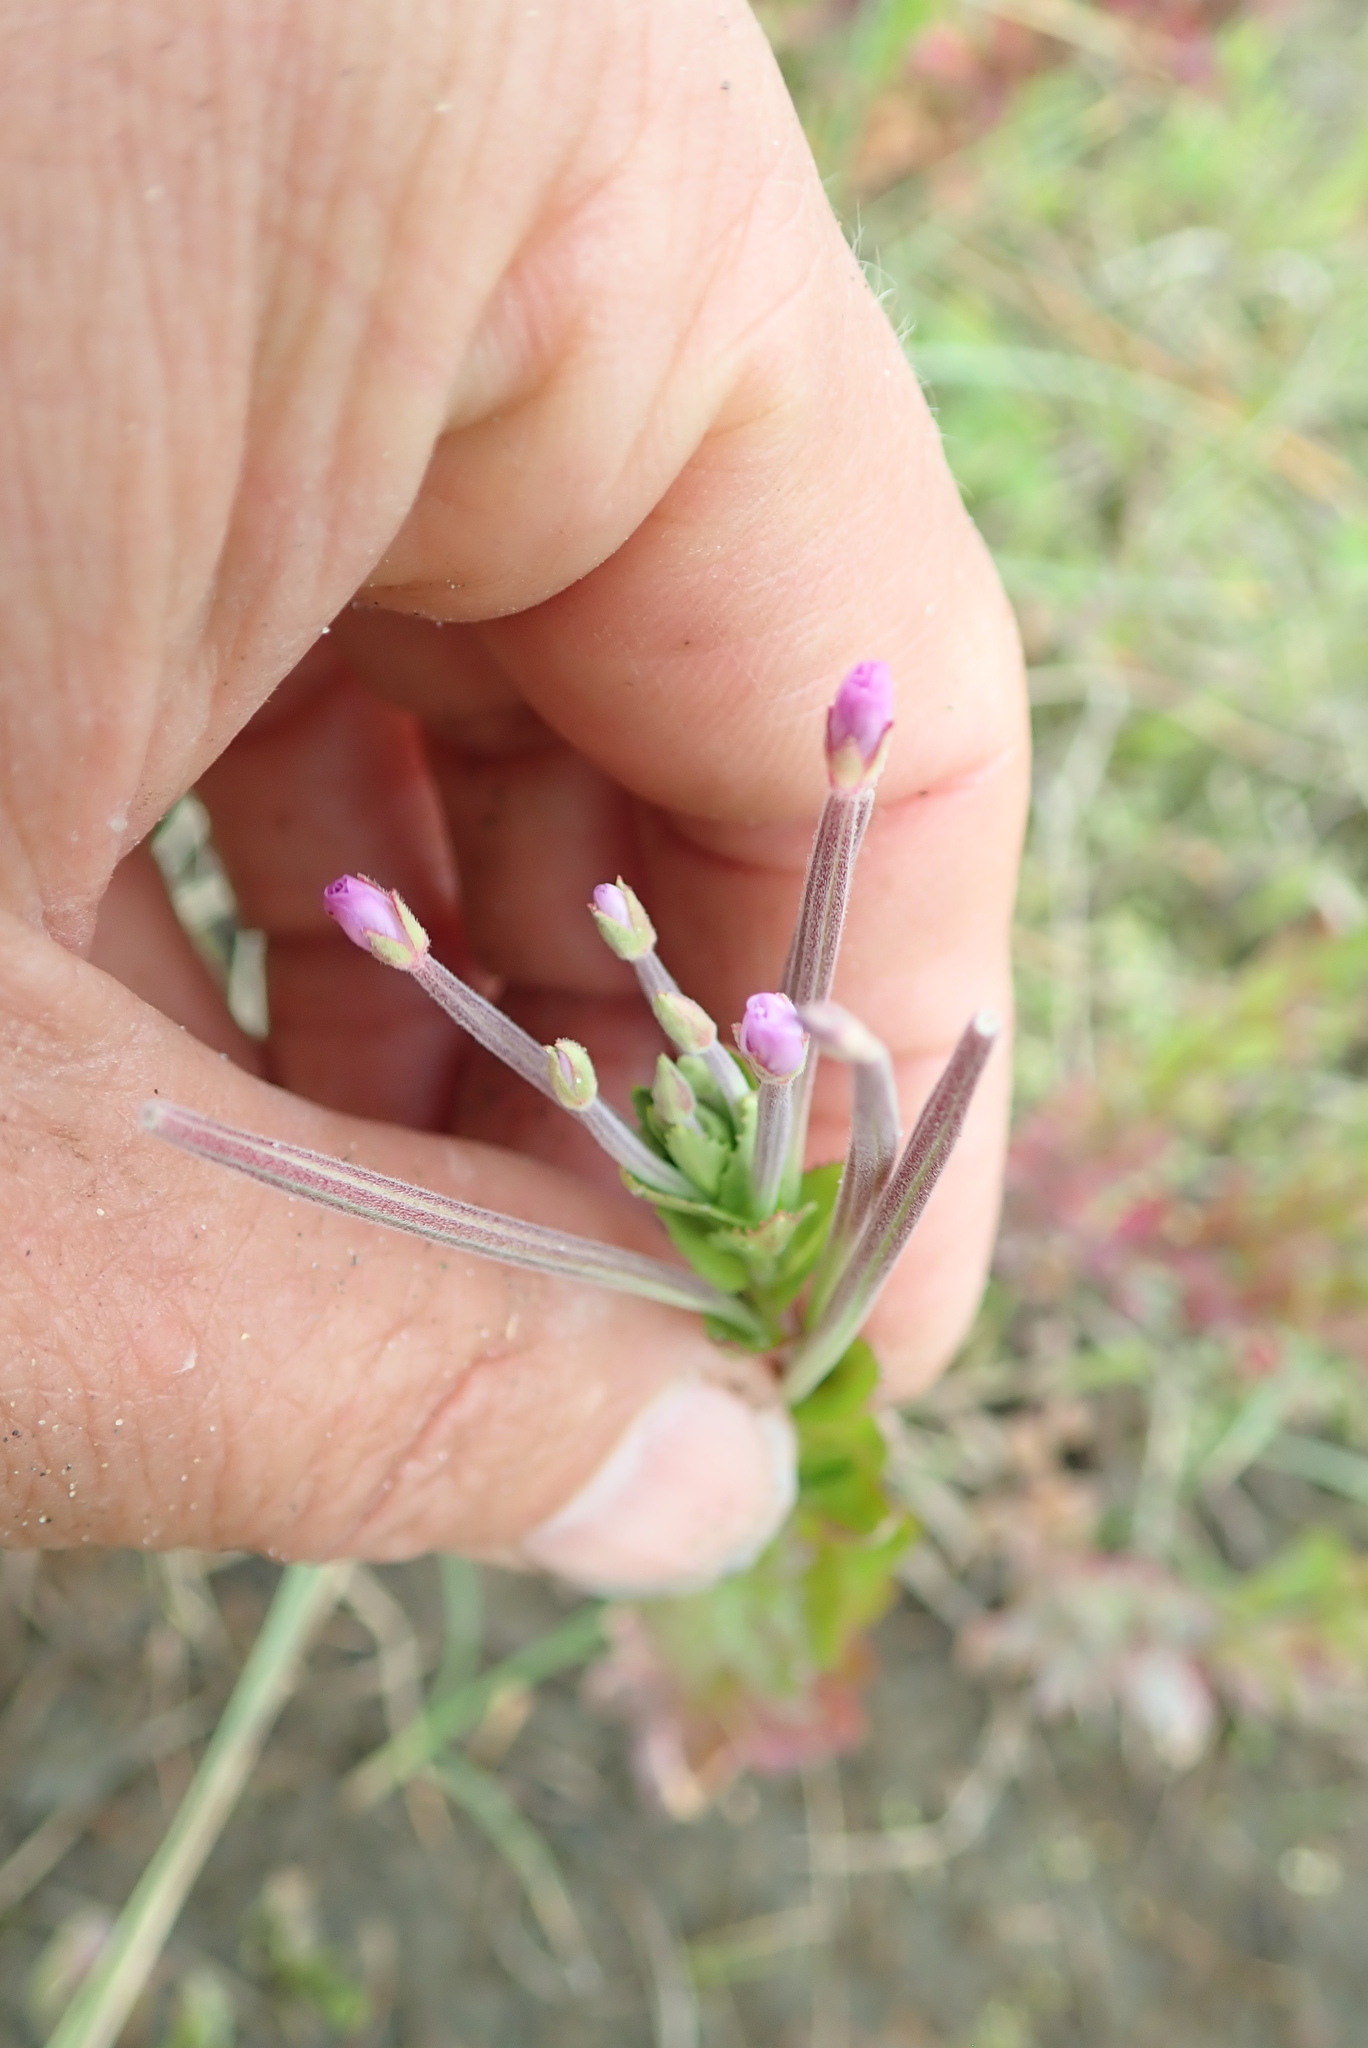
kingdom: Plantae
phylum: Tracheophyta
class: Magnoliopsida
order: Myrtales
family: Onagraceae
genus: Epilobium
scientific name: Epilobium billardiereanum
